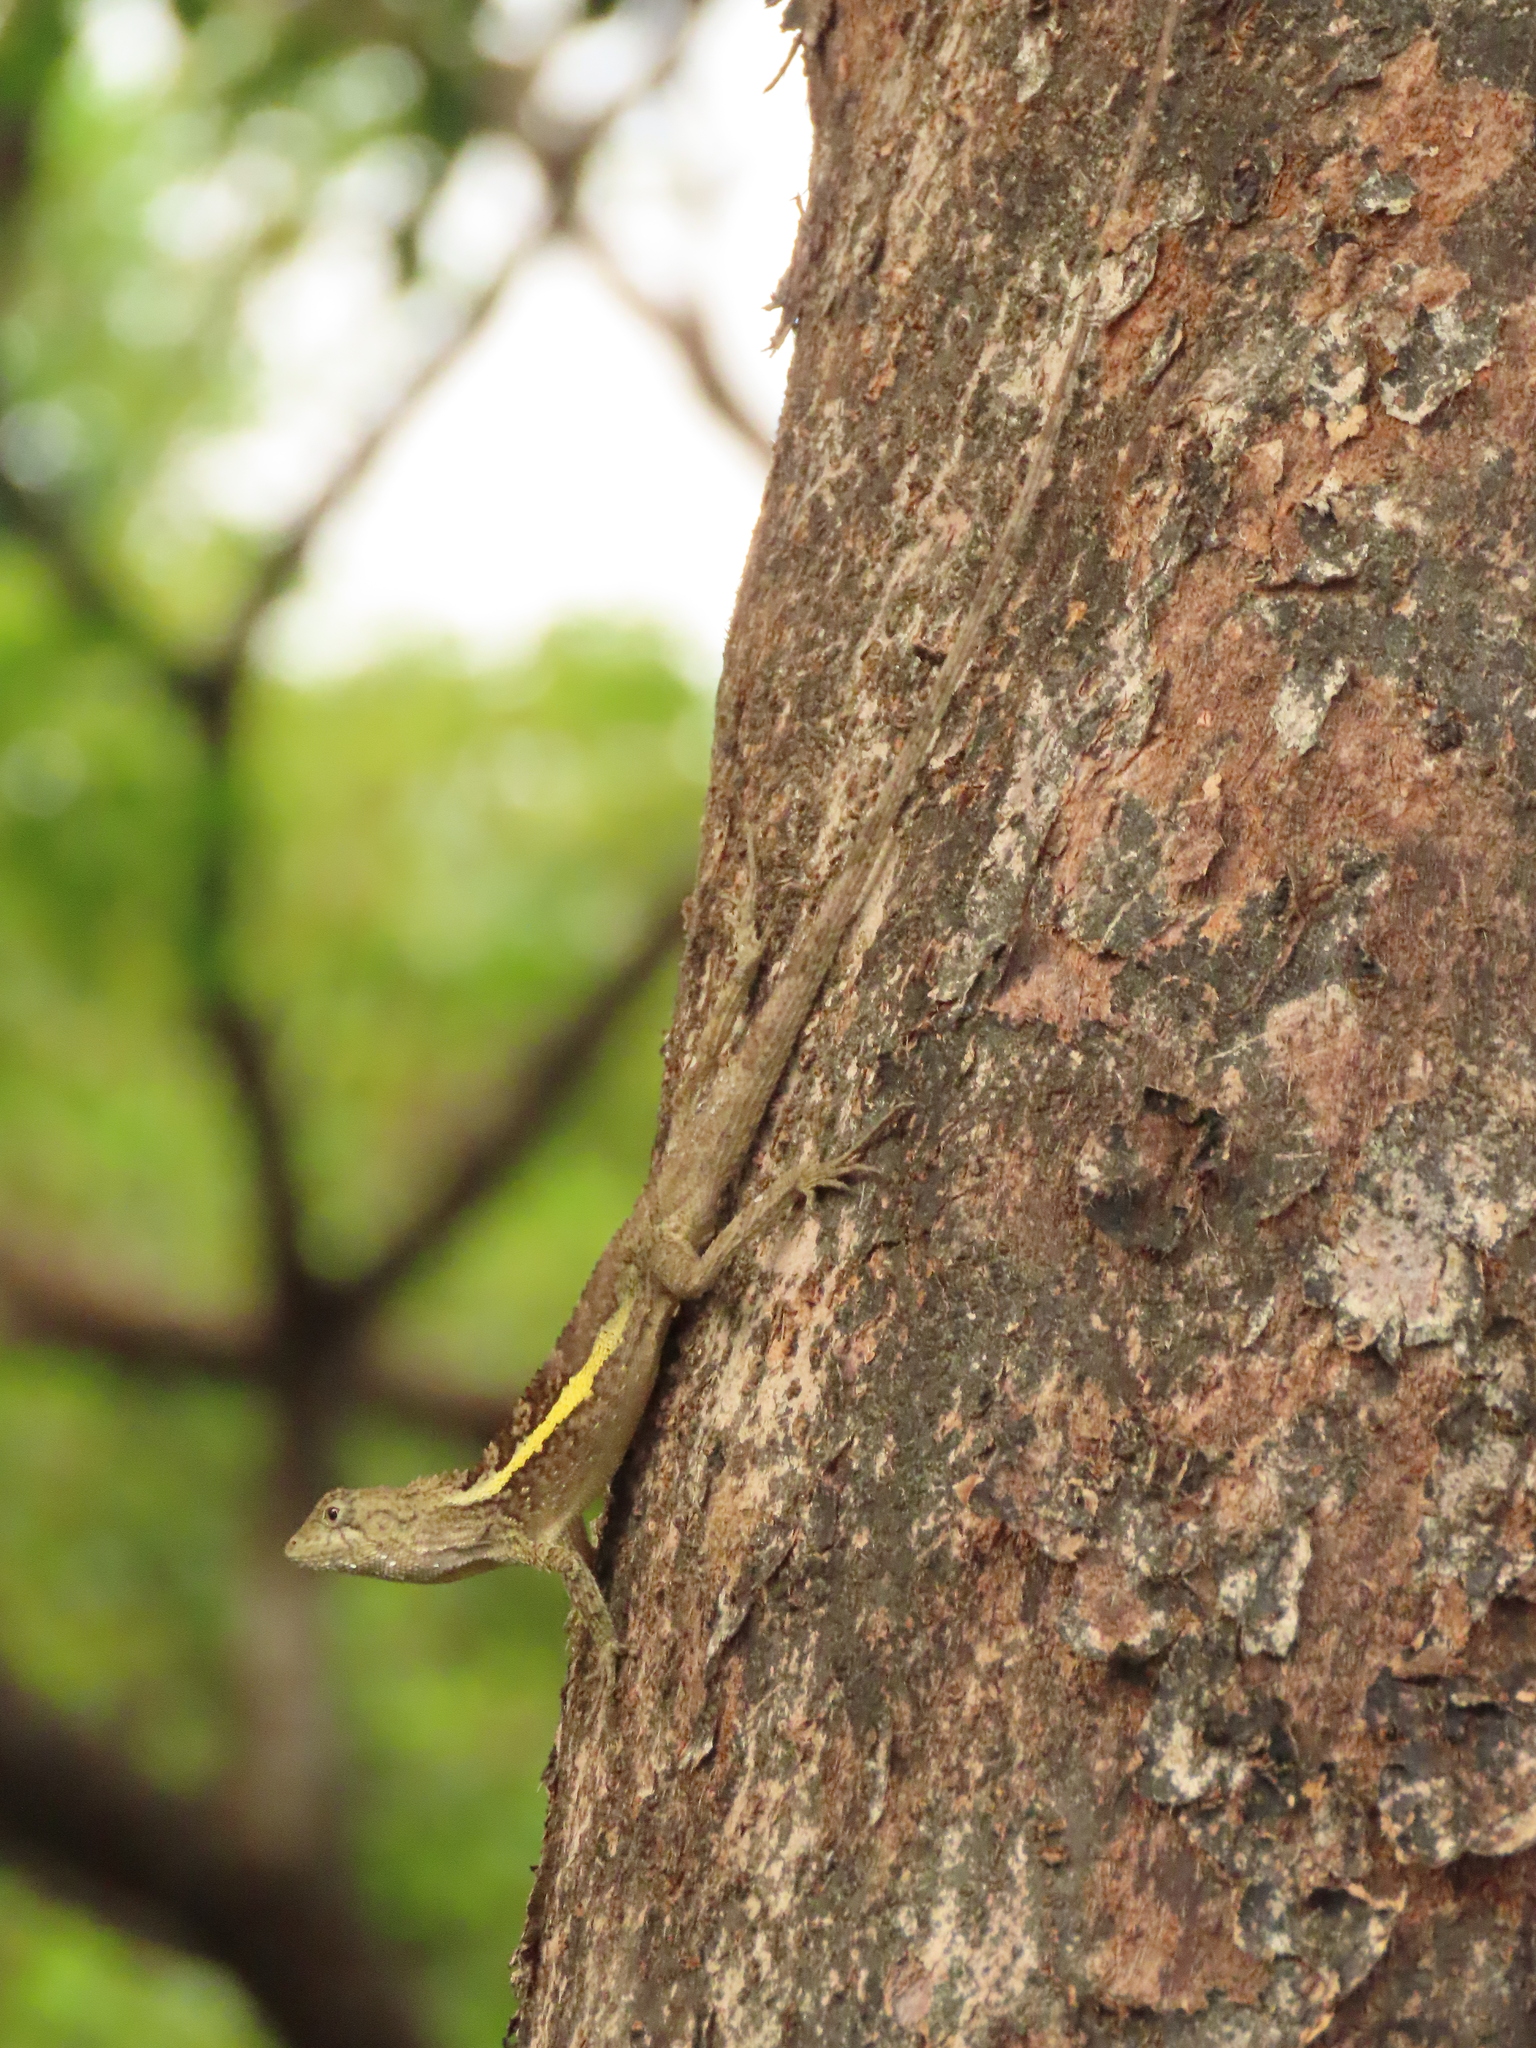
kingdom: Animalia
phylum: Chordata
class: Squamata
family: Agamidae
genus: Diploderma
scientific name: Diploderma swinhonis
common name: Taiwan japalure
